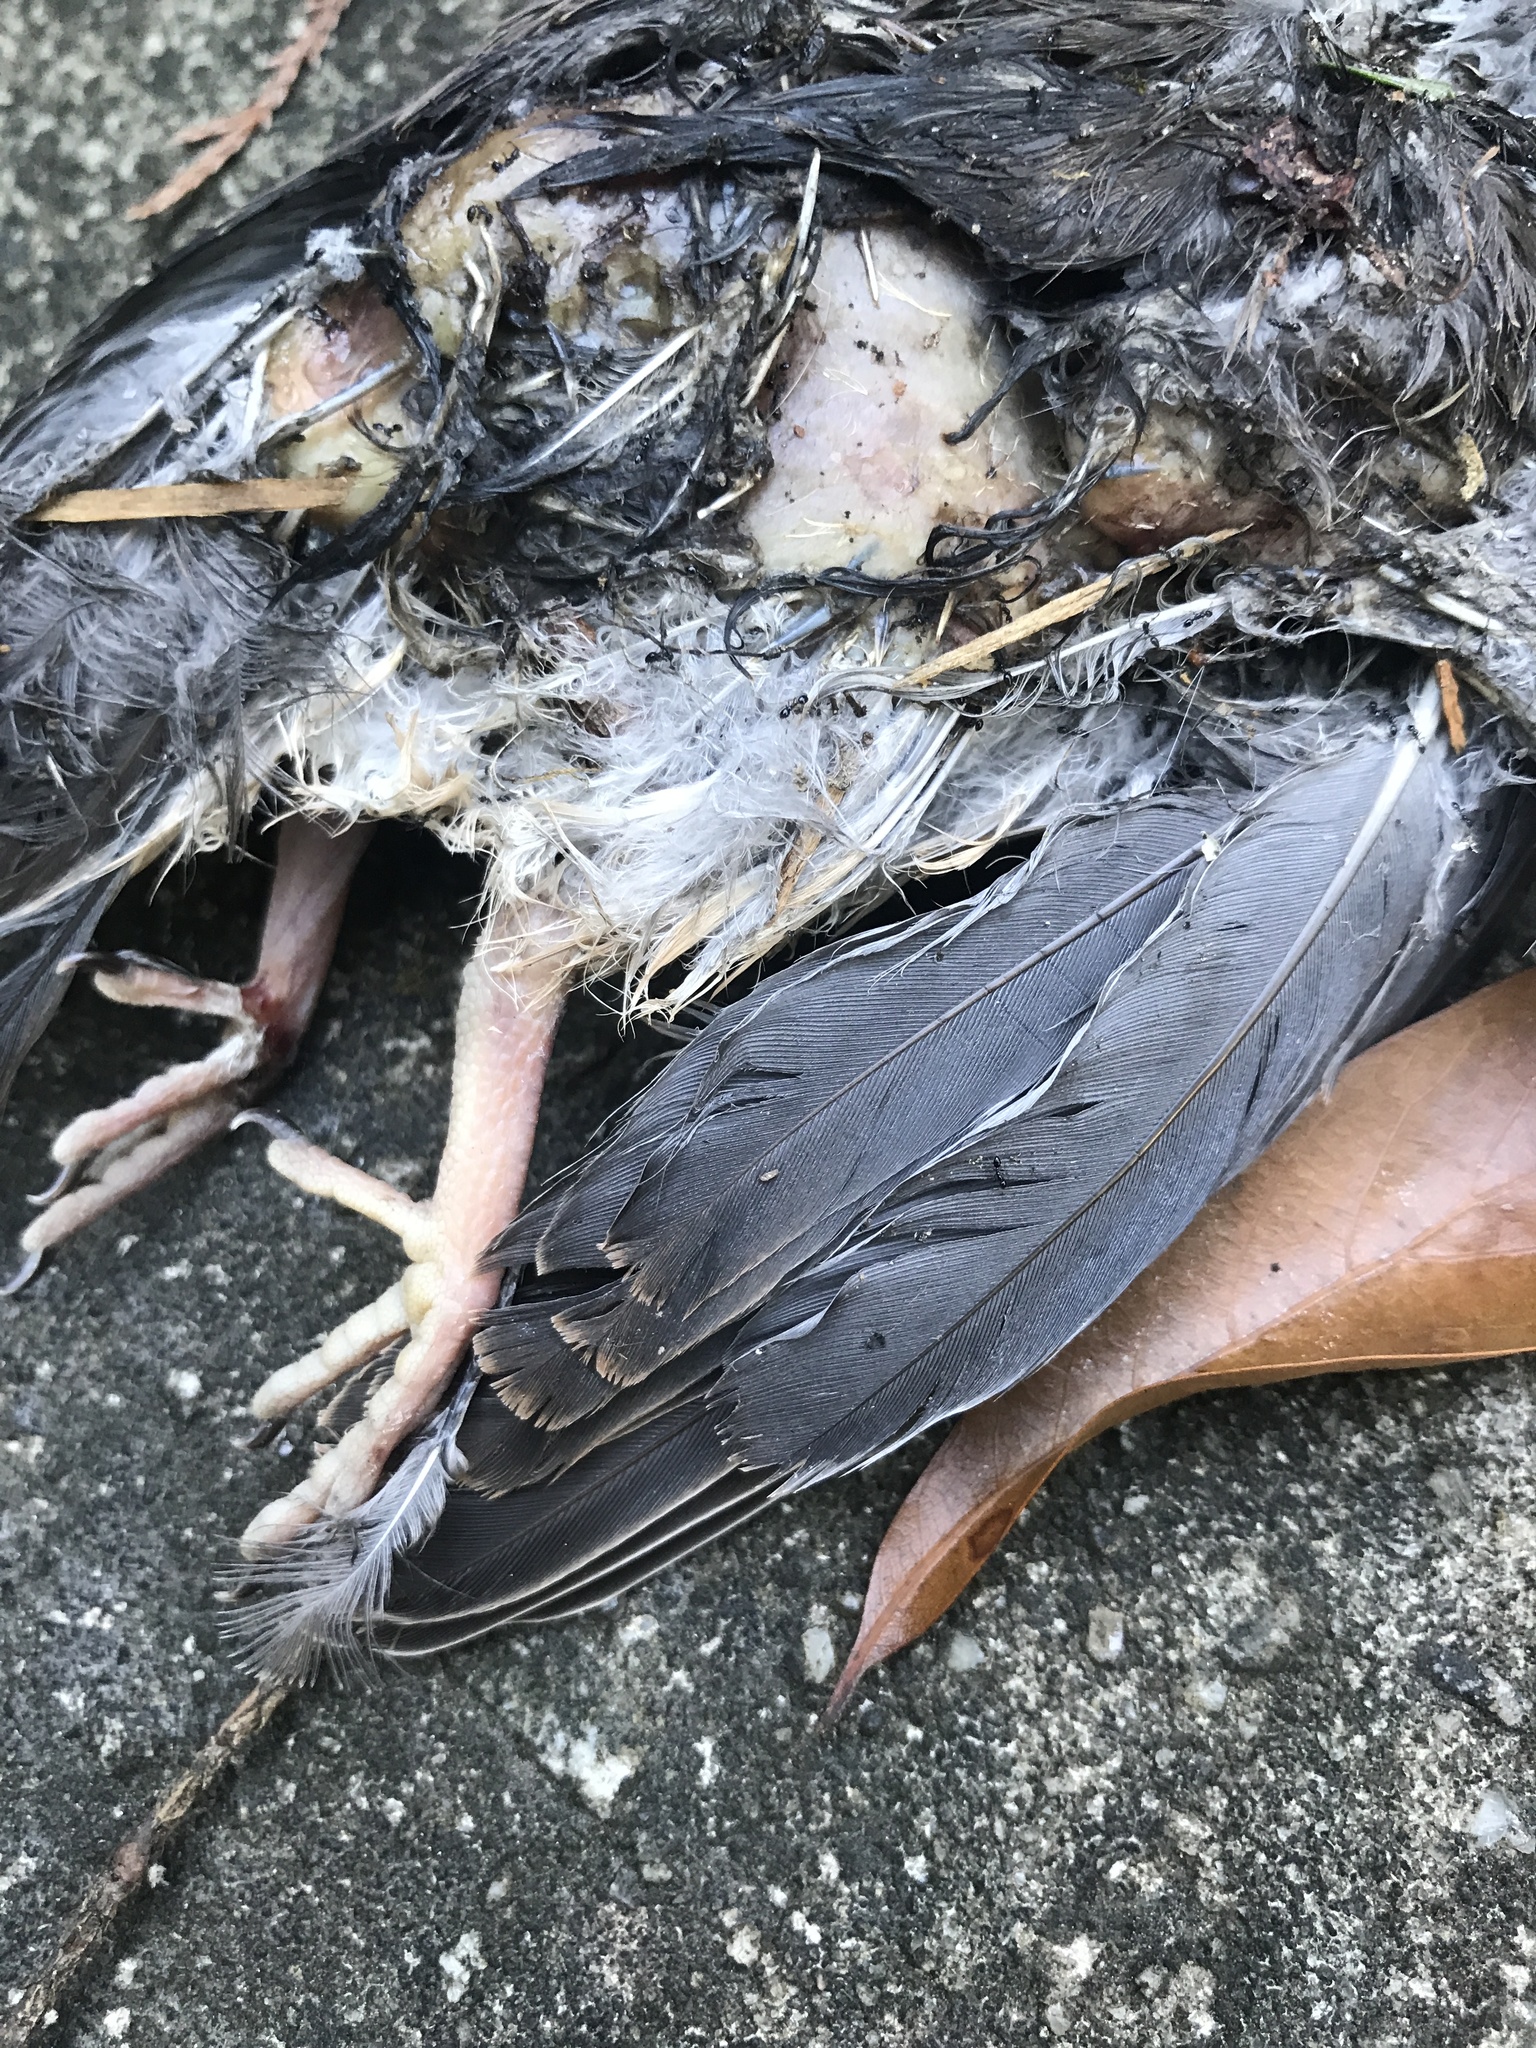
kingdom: Animalia
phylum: Chordata
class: Aves
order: Columbiformes
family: Columbidae
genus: Zenaida
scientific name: Zenaida macroura
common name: Mourning dove
